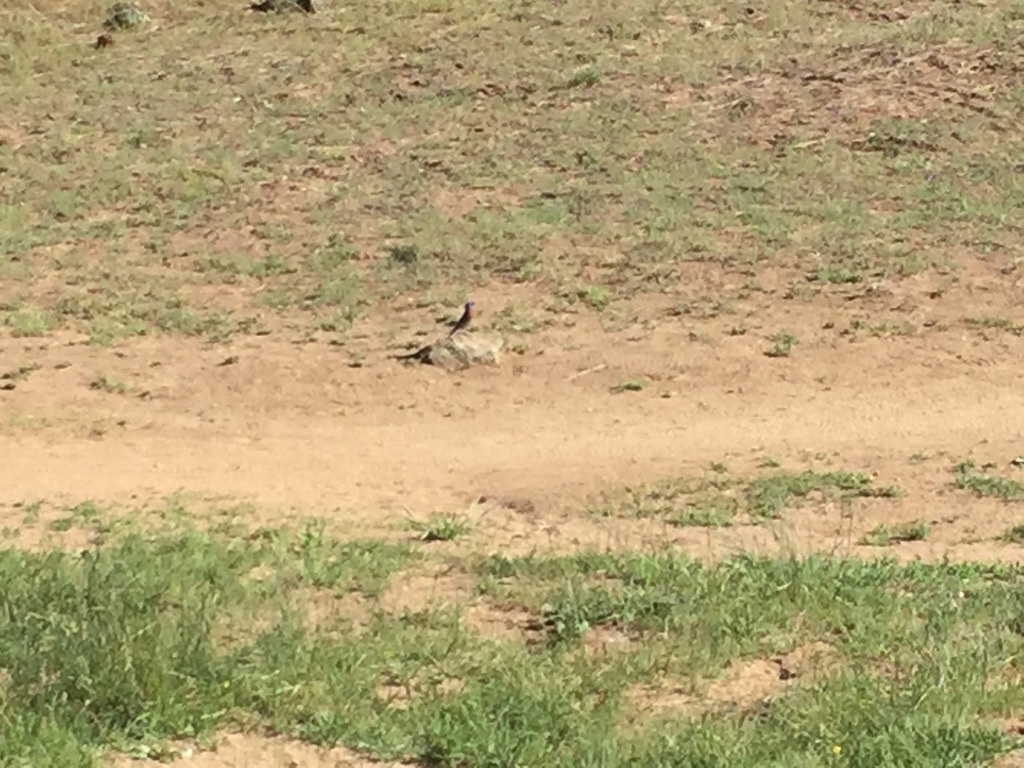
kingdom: Animalia
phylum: Chordata
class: Aves
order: Passeriformes
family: Turdidae
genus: Sialia
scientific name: Sialia mexicana
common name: Western bluebird
